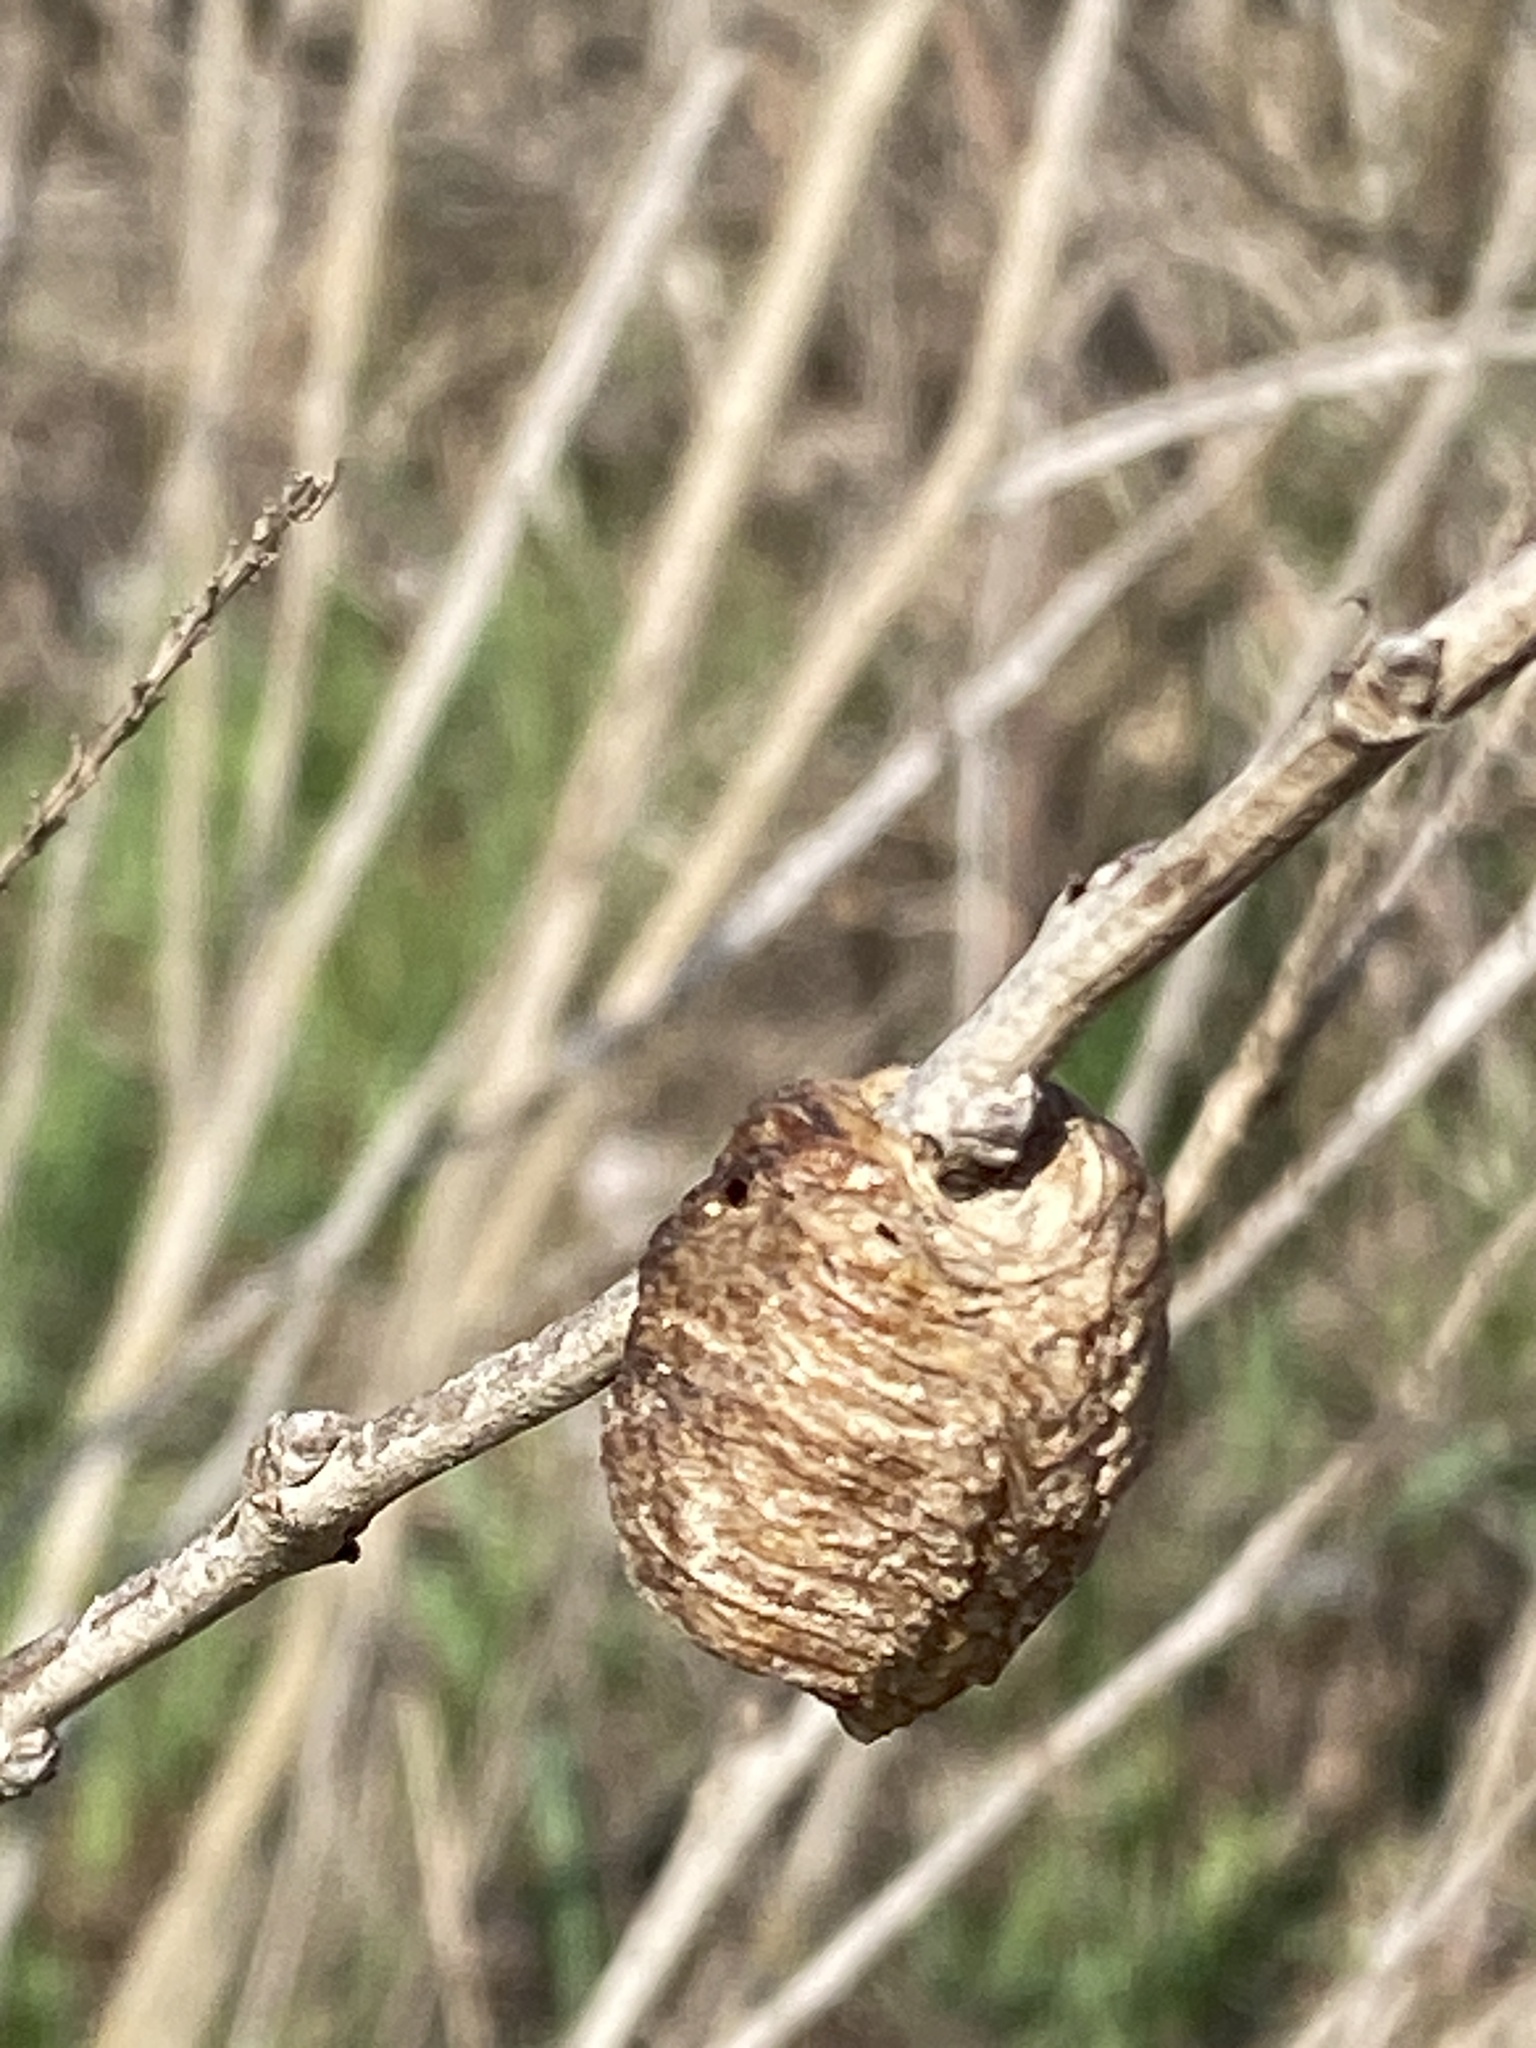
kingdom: Animalia
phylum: Arthropoda
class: Insecta
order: Mantodea
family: Mantidae
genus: Hierodula
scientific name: Hierodula transcaucasica
